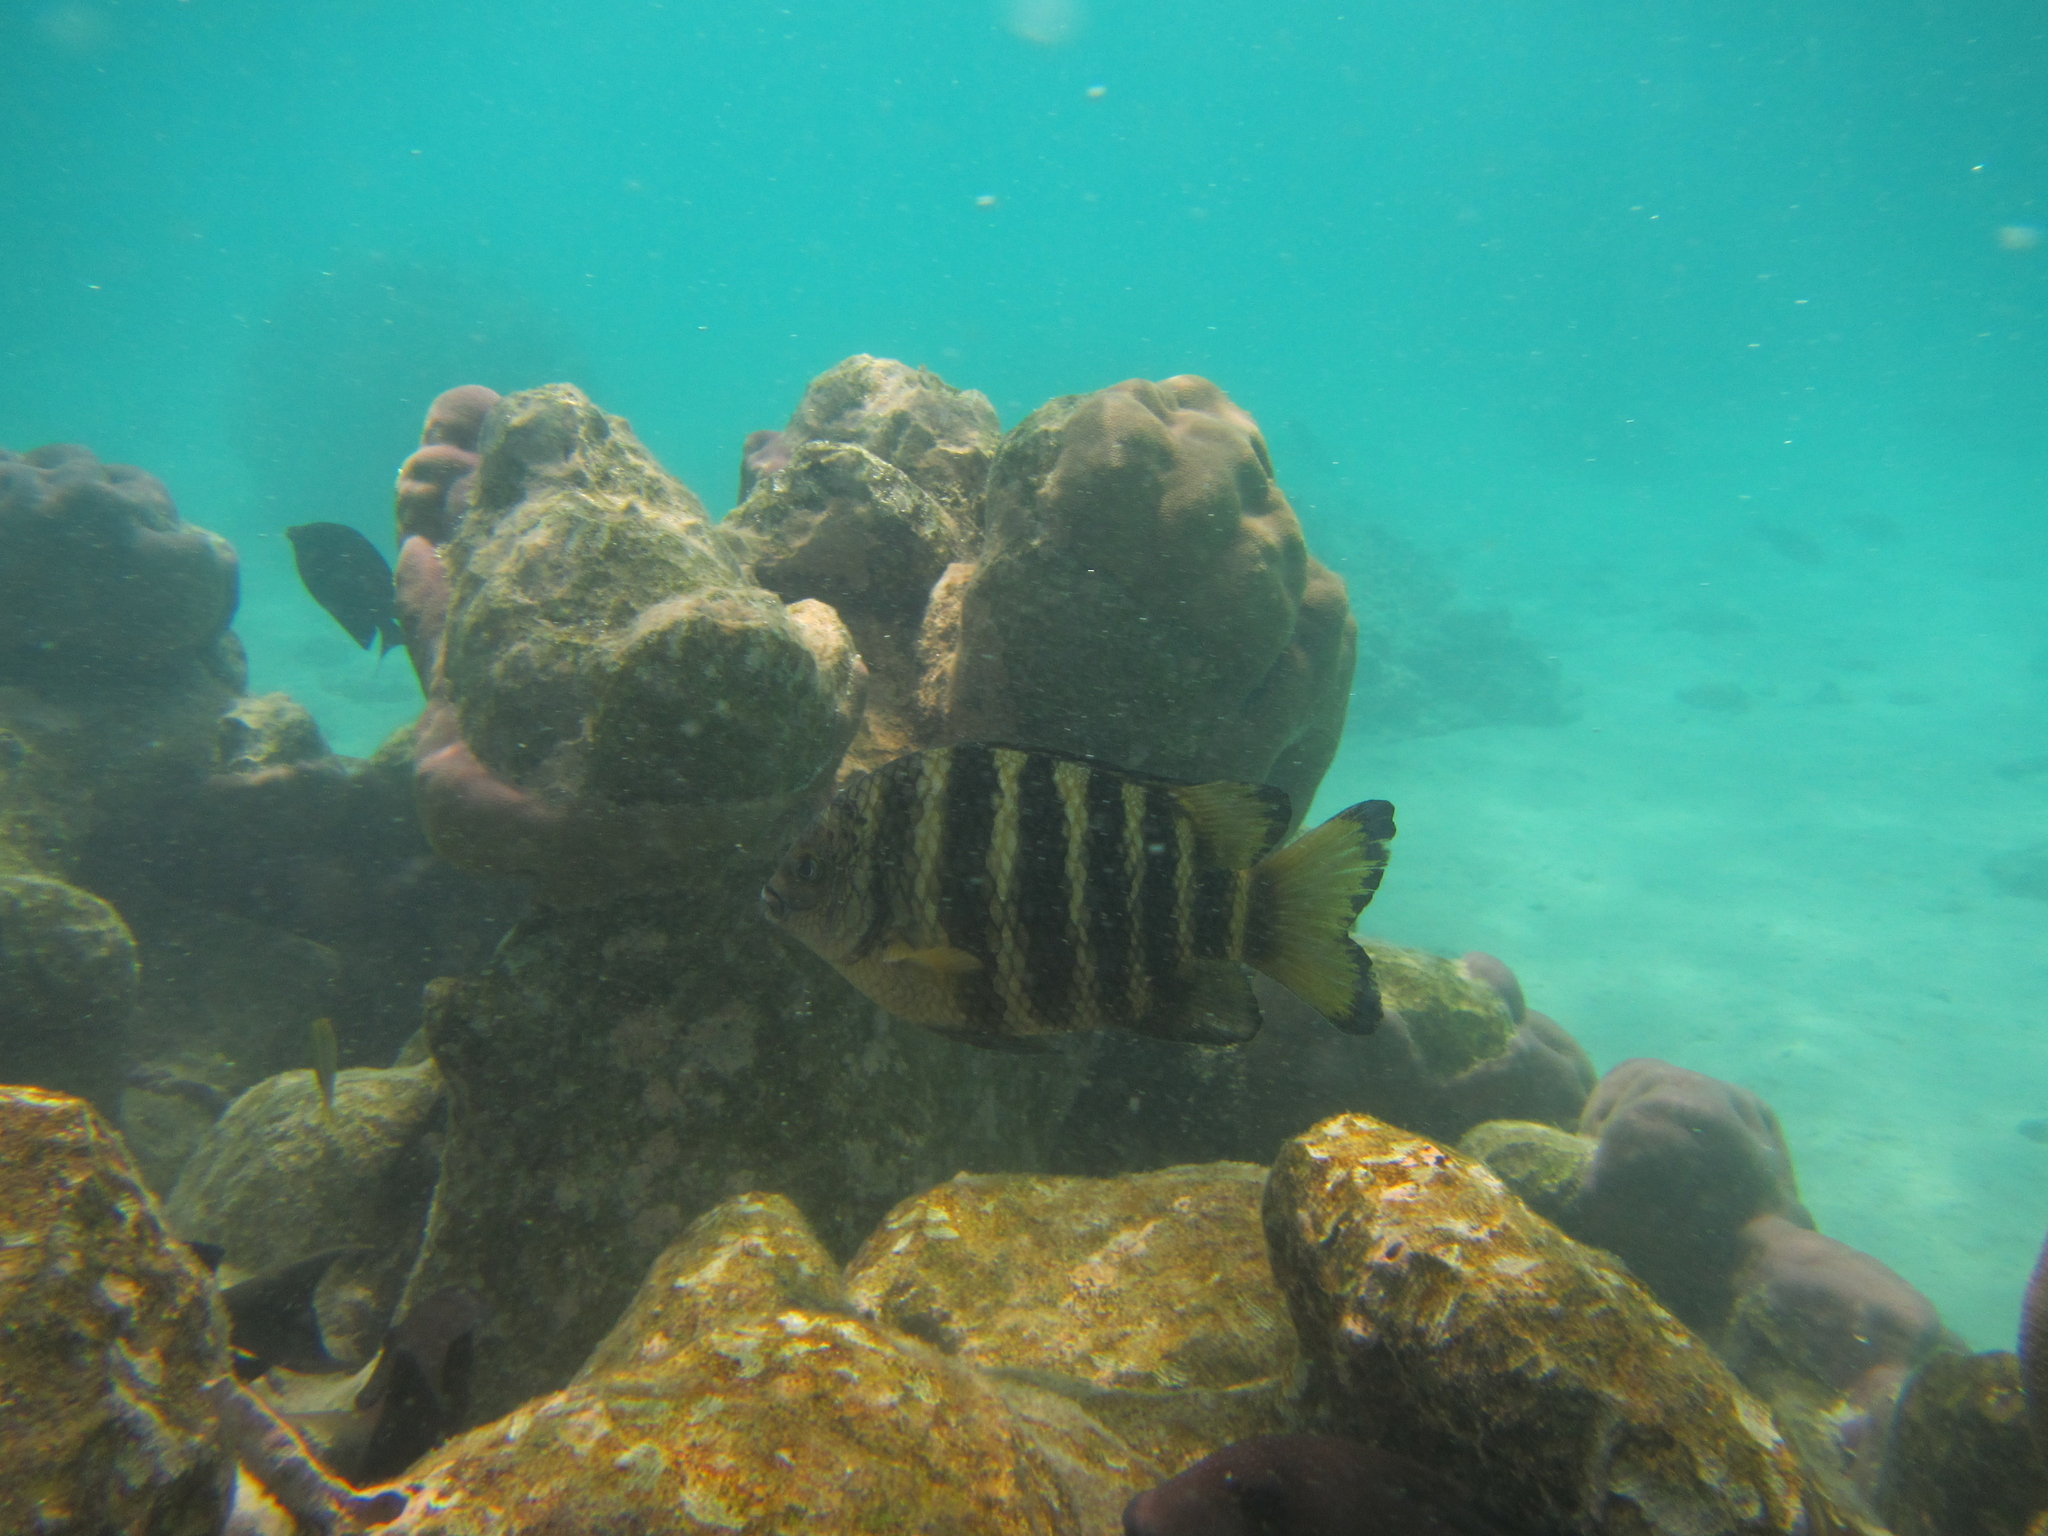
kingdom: Animalia
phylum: Chordata
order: Perciformes
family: Pomacentridae
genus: Abudefduf
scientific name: Abudefduf septemfasciatus
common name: Banded sergeant
